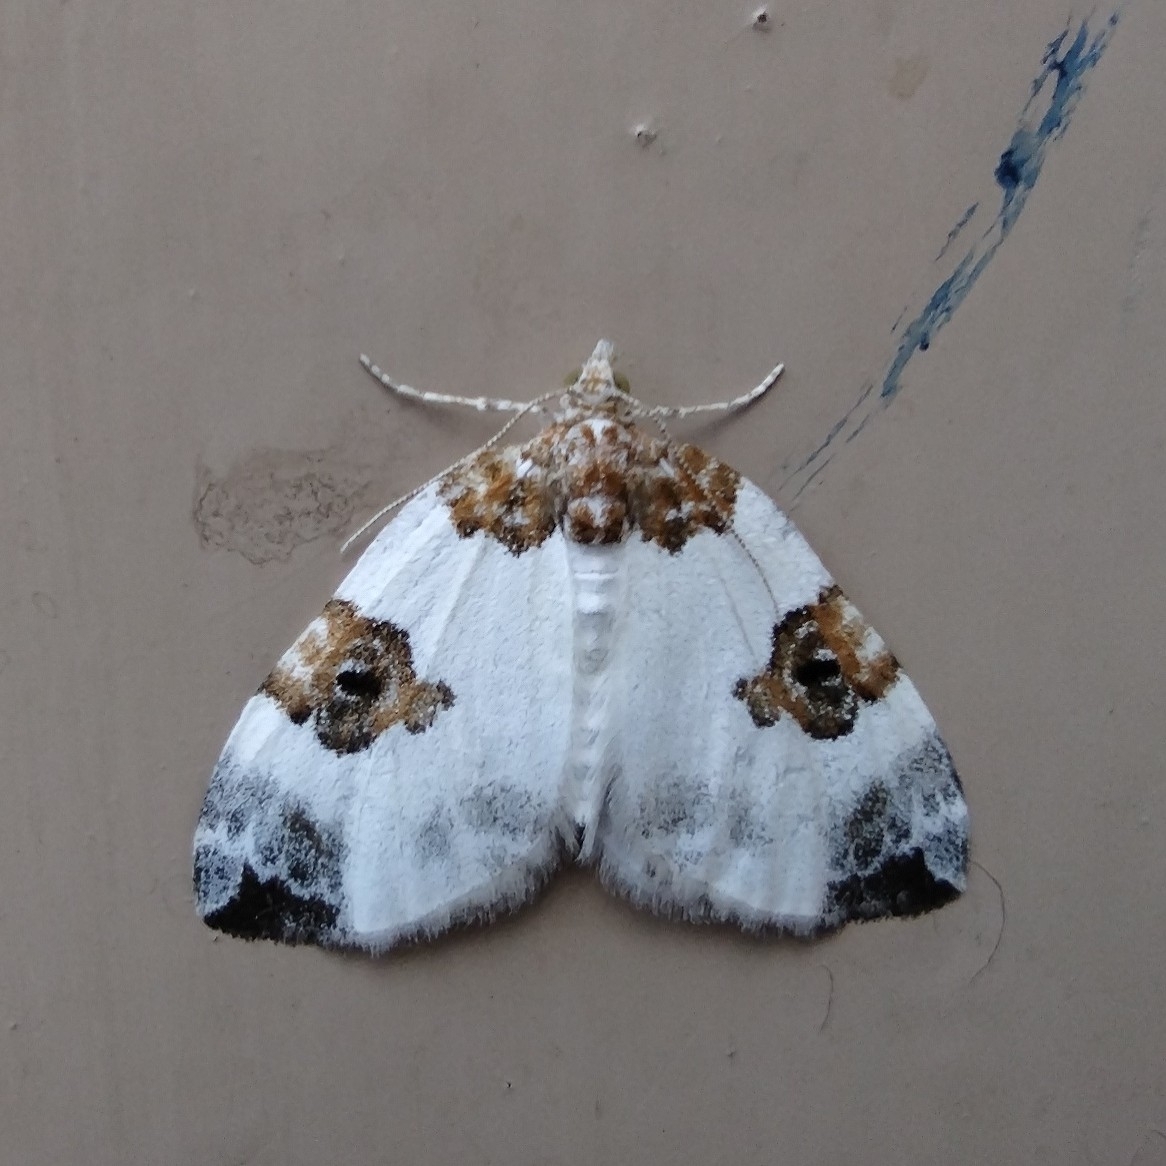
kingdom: Animalia
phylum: Arthropoda
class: Insecta
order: Lepidoptera
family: Geometridae
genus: Plemyria
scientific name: Plemyria rubiginata
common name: Blue-bordered carpet
